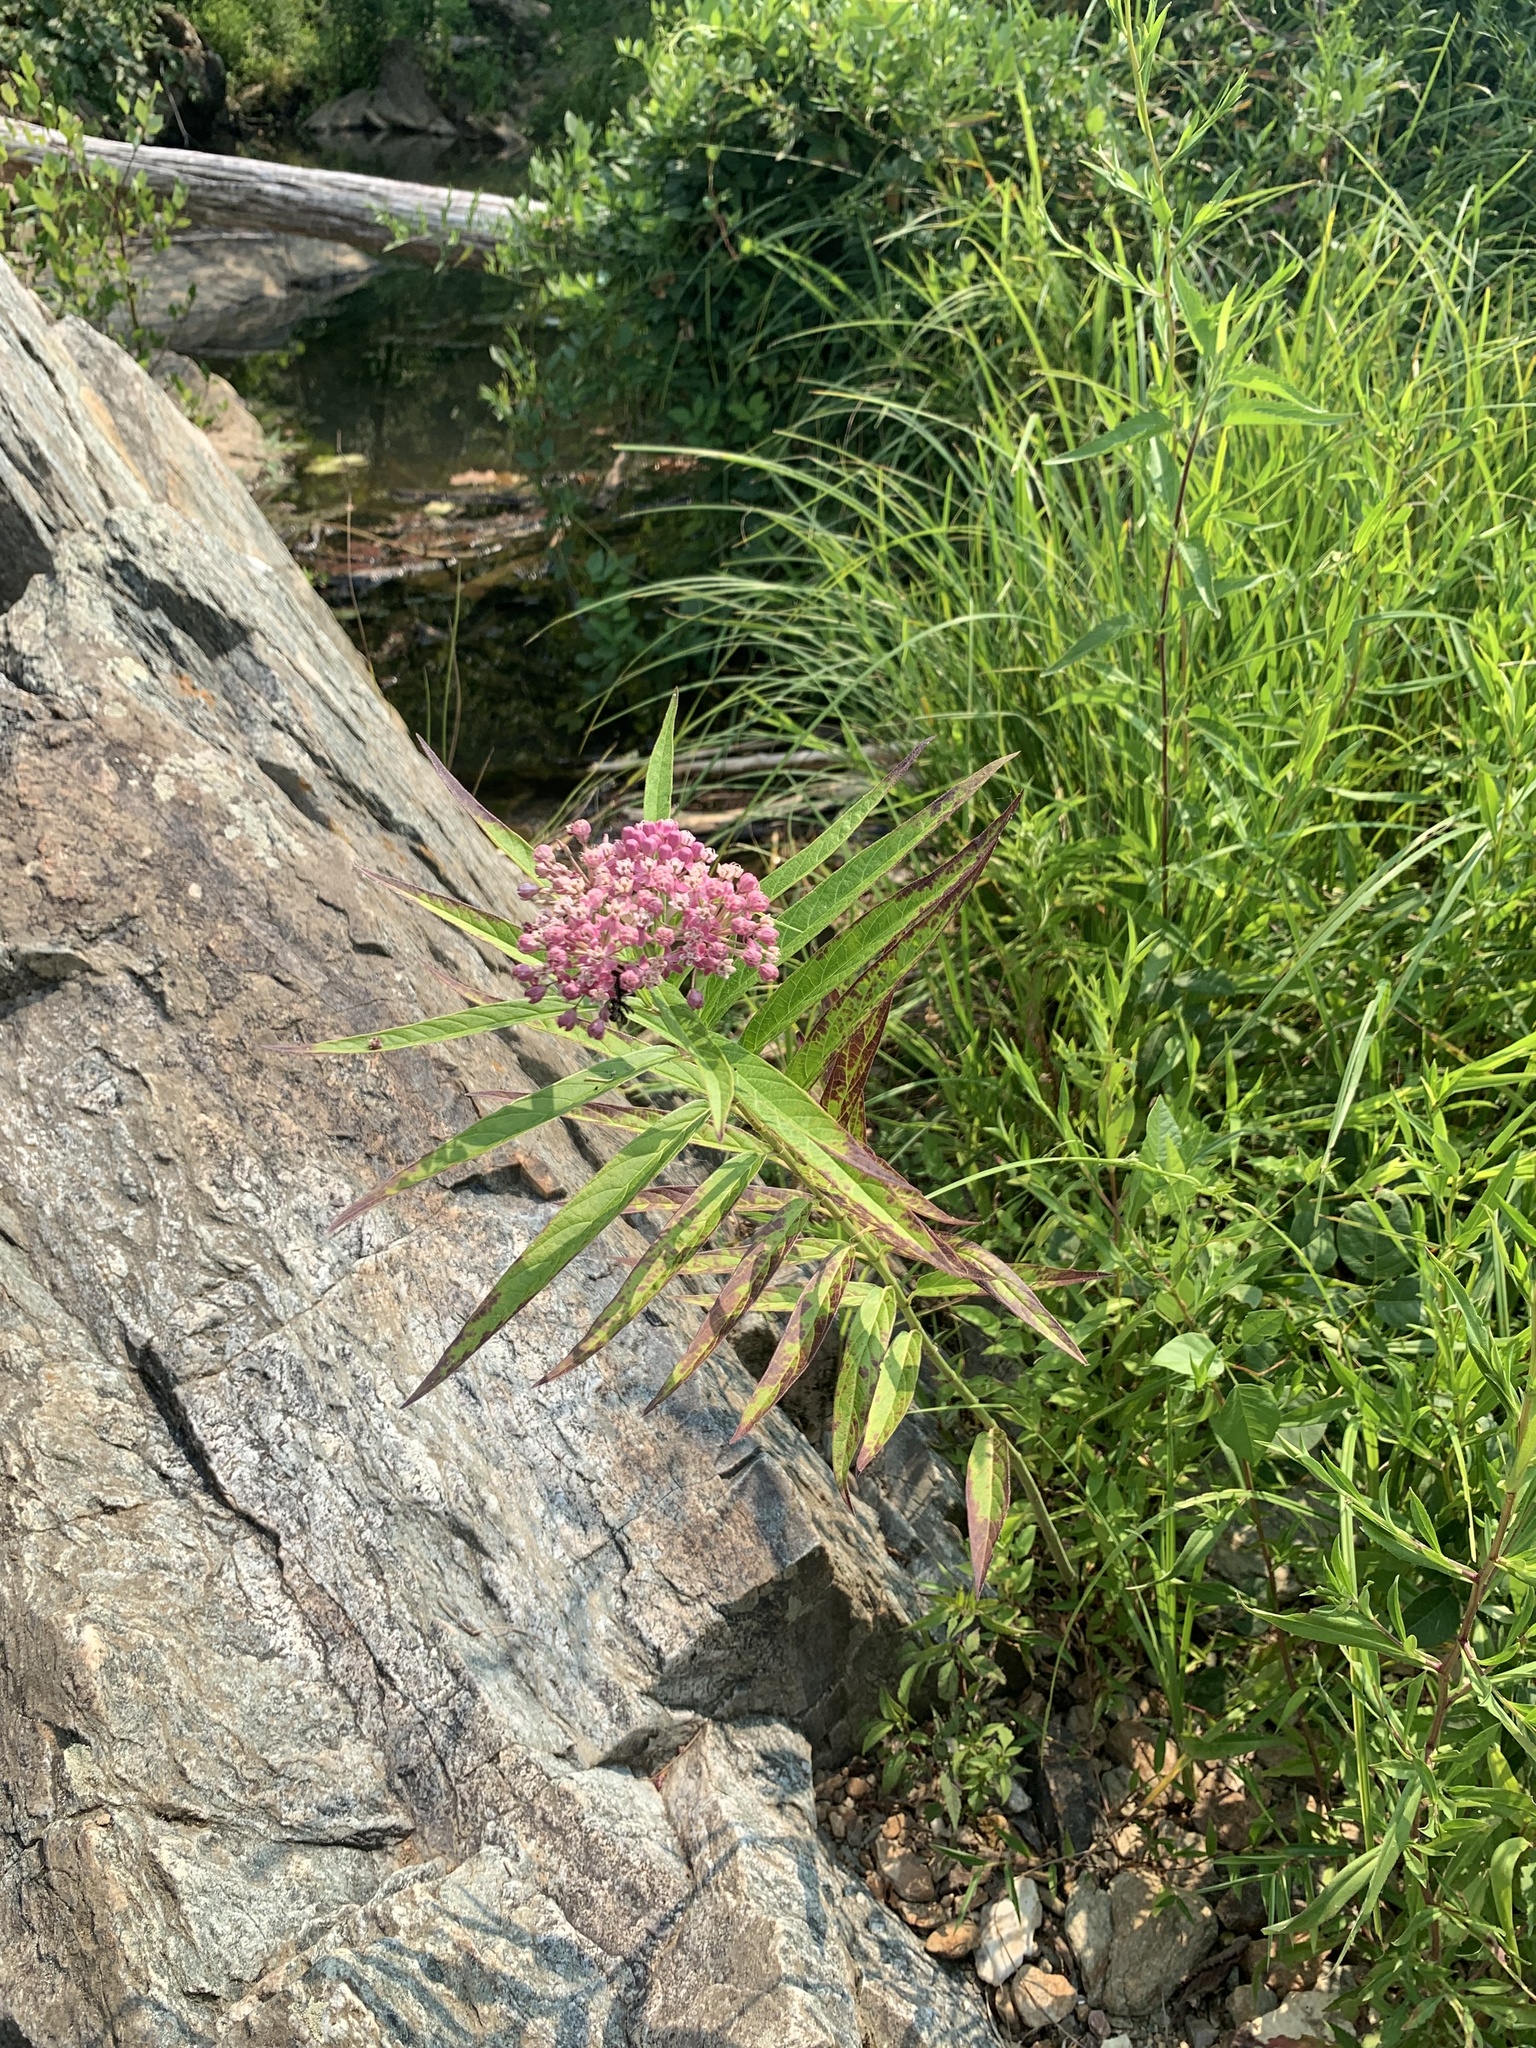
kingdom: Plantae
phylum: Tracheophyta
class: Magnoliopsida
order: Gentianales
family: Apocynaceae
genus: Asclepias
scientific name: Asclepias incarnata
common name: Swamp milkweed
